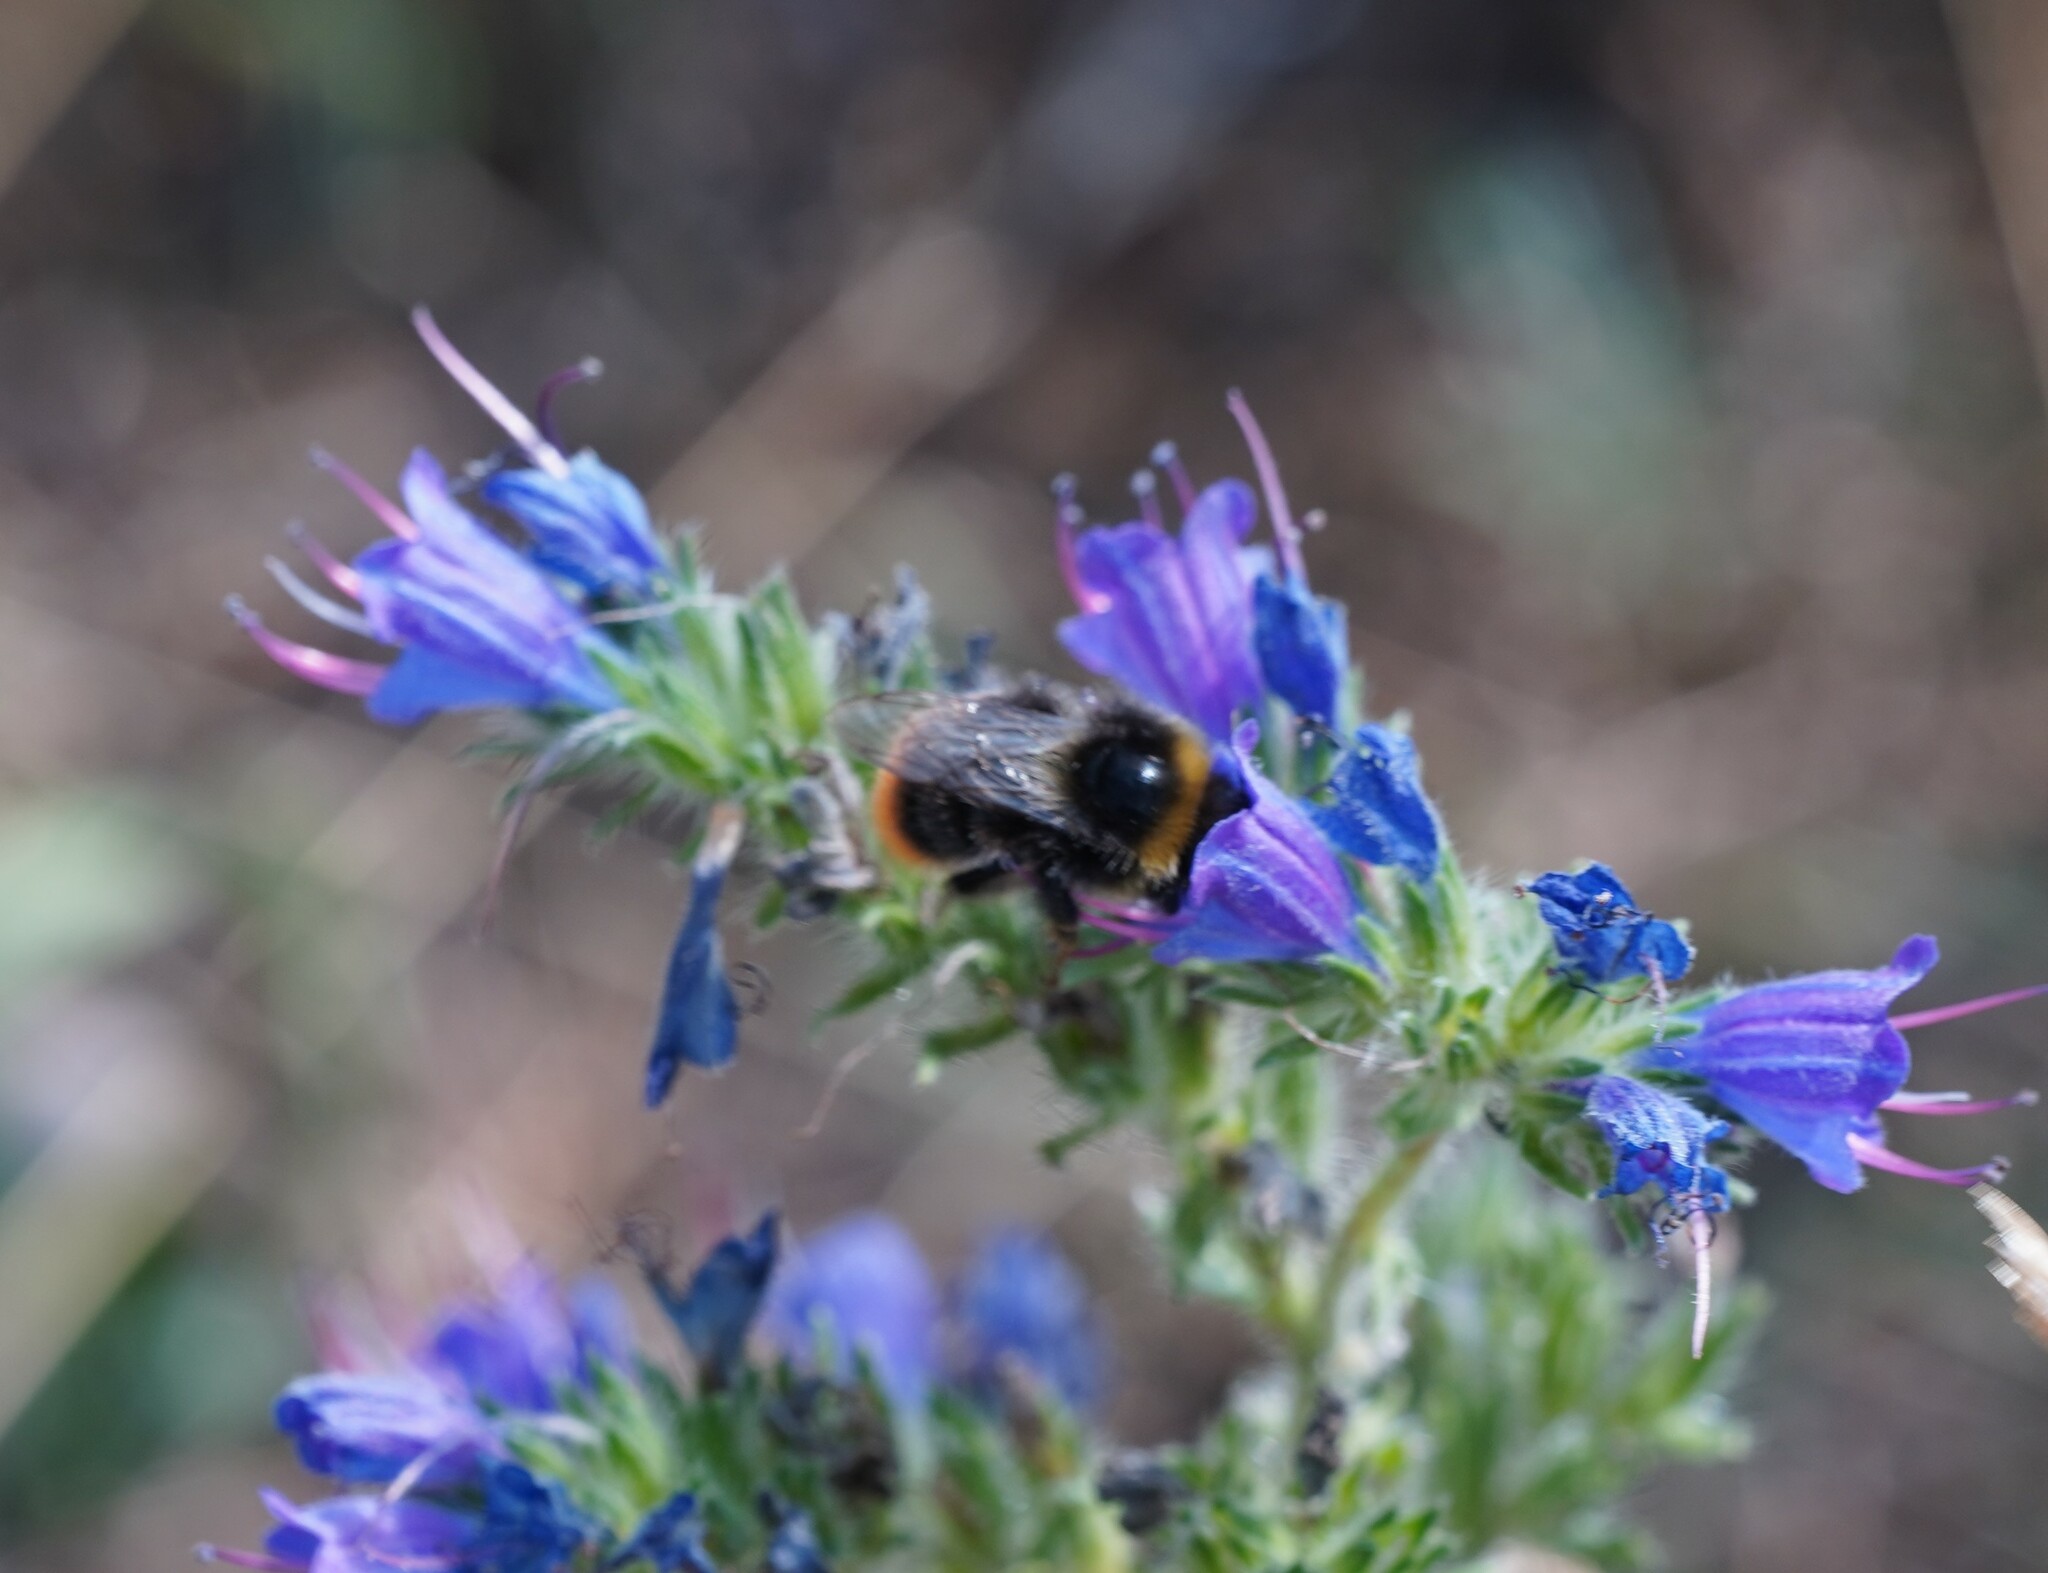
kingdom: Animalia
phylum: Arthropoda
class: Insecta
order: Hymenoptera
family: Apidae
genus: Bombus
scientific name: Bombus lapidarius
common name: Large red-tailed humble-bee
